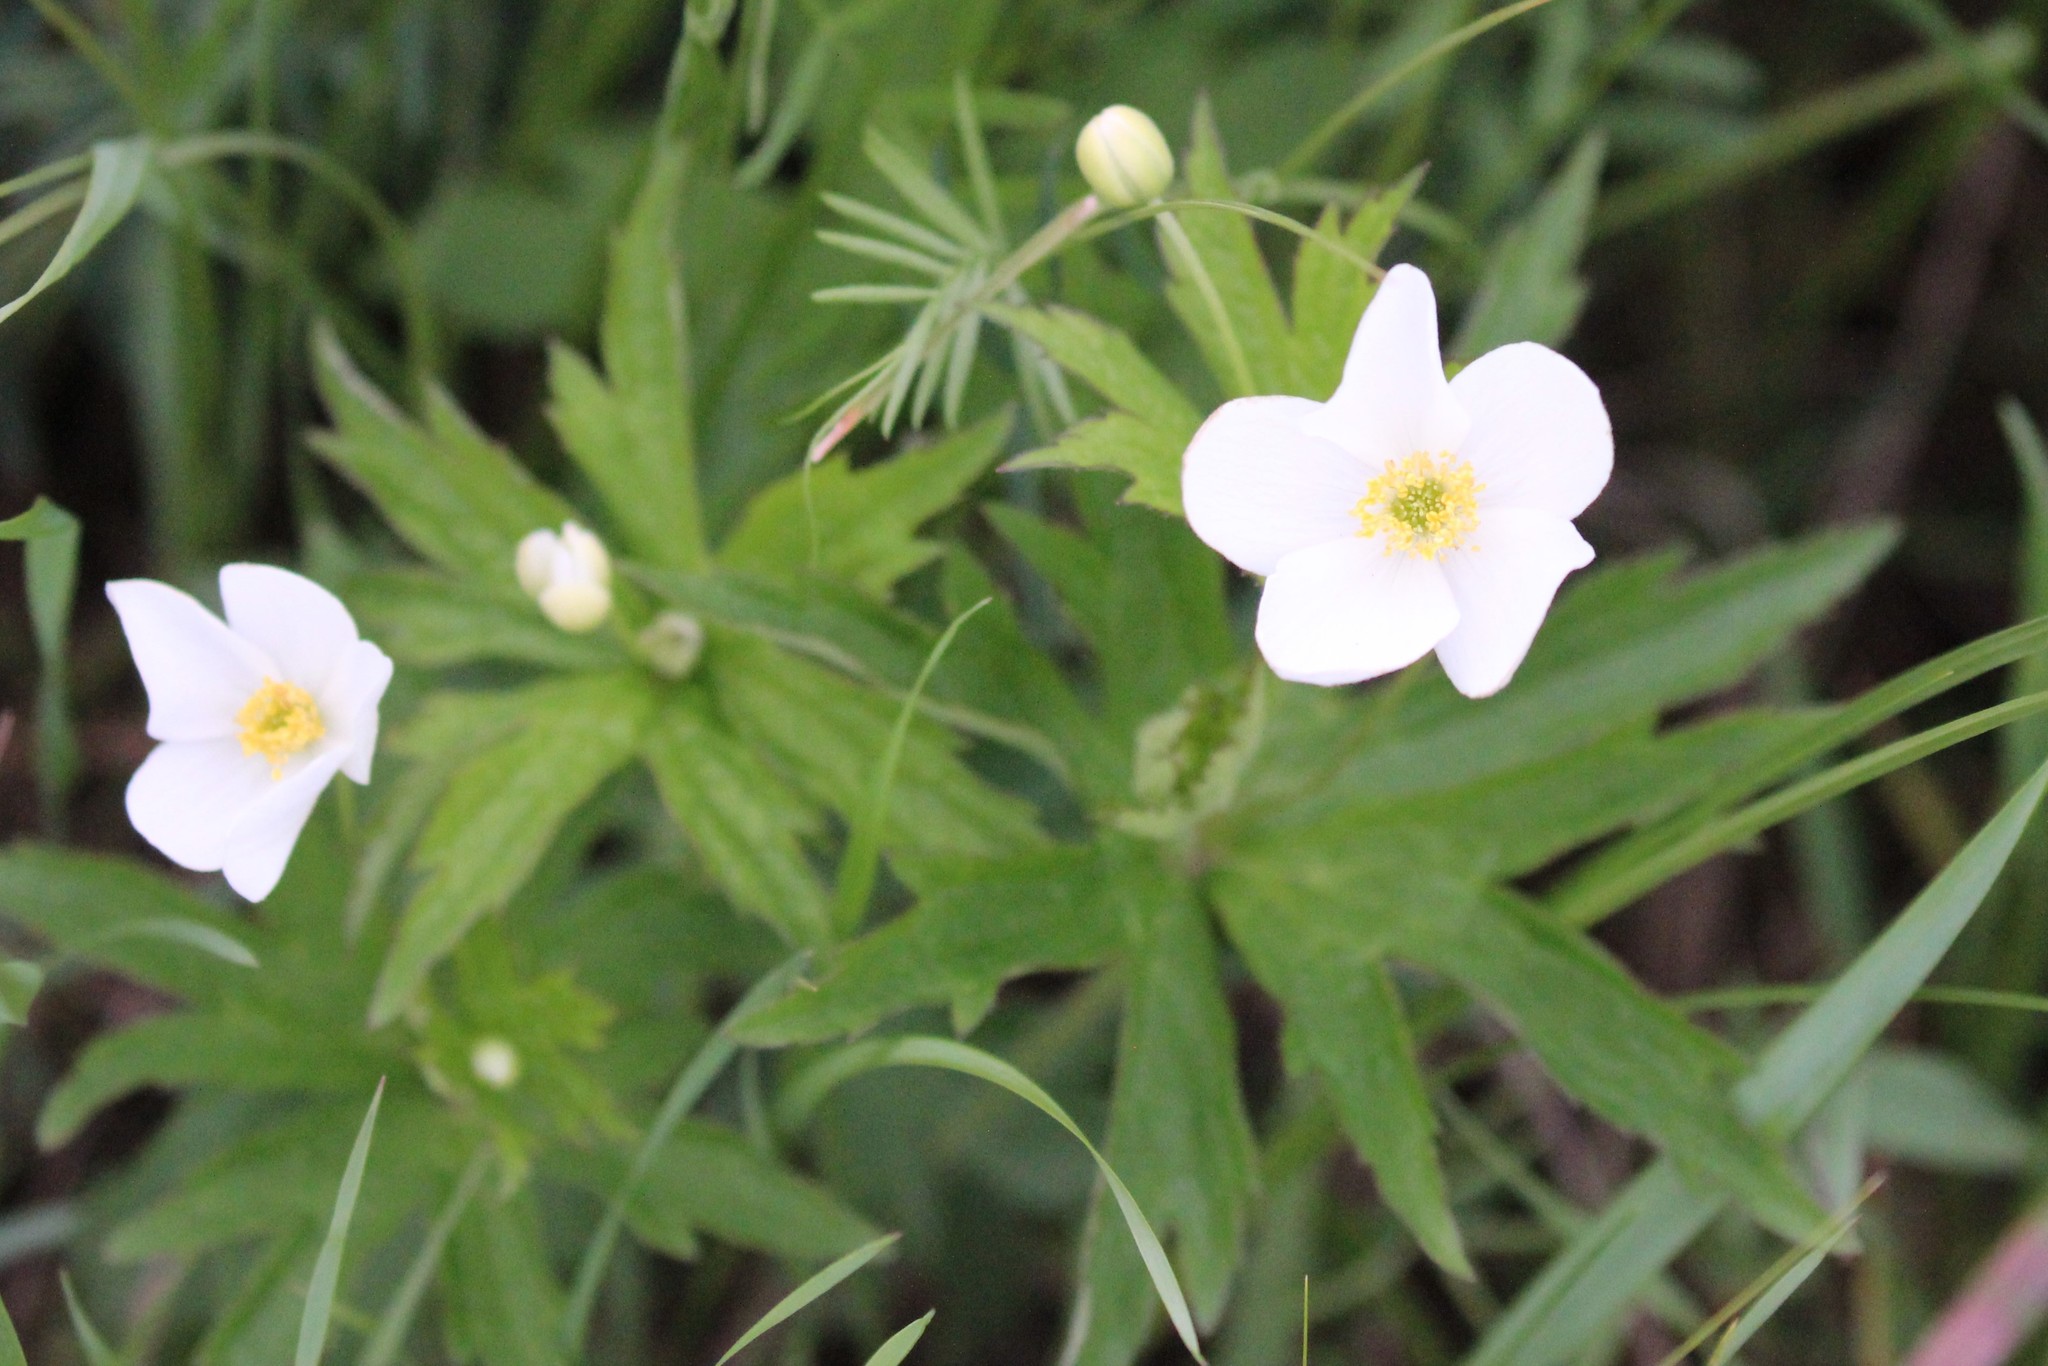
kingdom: Plantae
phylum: Tracheophyta
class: Magnoliopsida
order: Ranunculales
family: Ranunculaceae
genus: Anemonastrum
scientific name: Anemonastrum canadense
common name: Canada anemone
